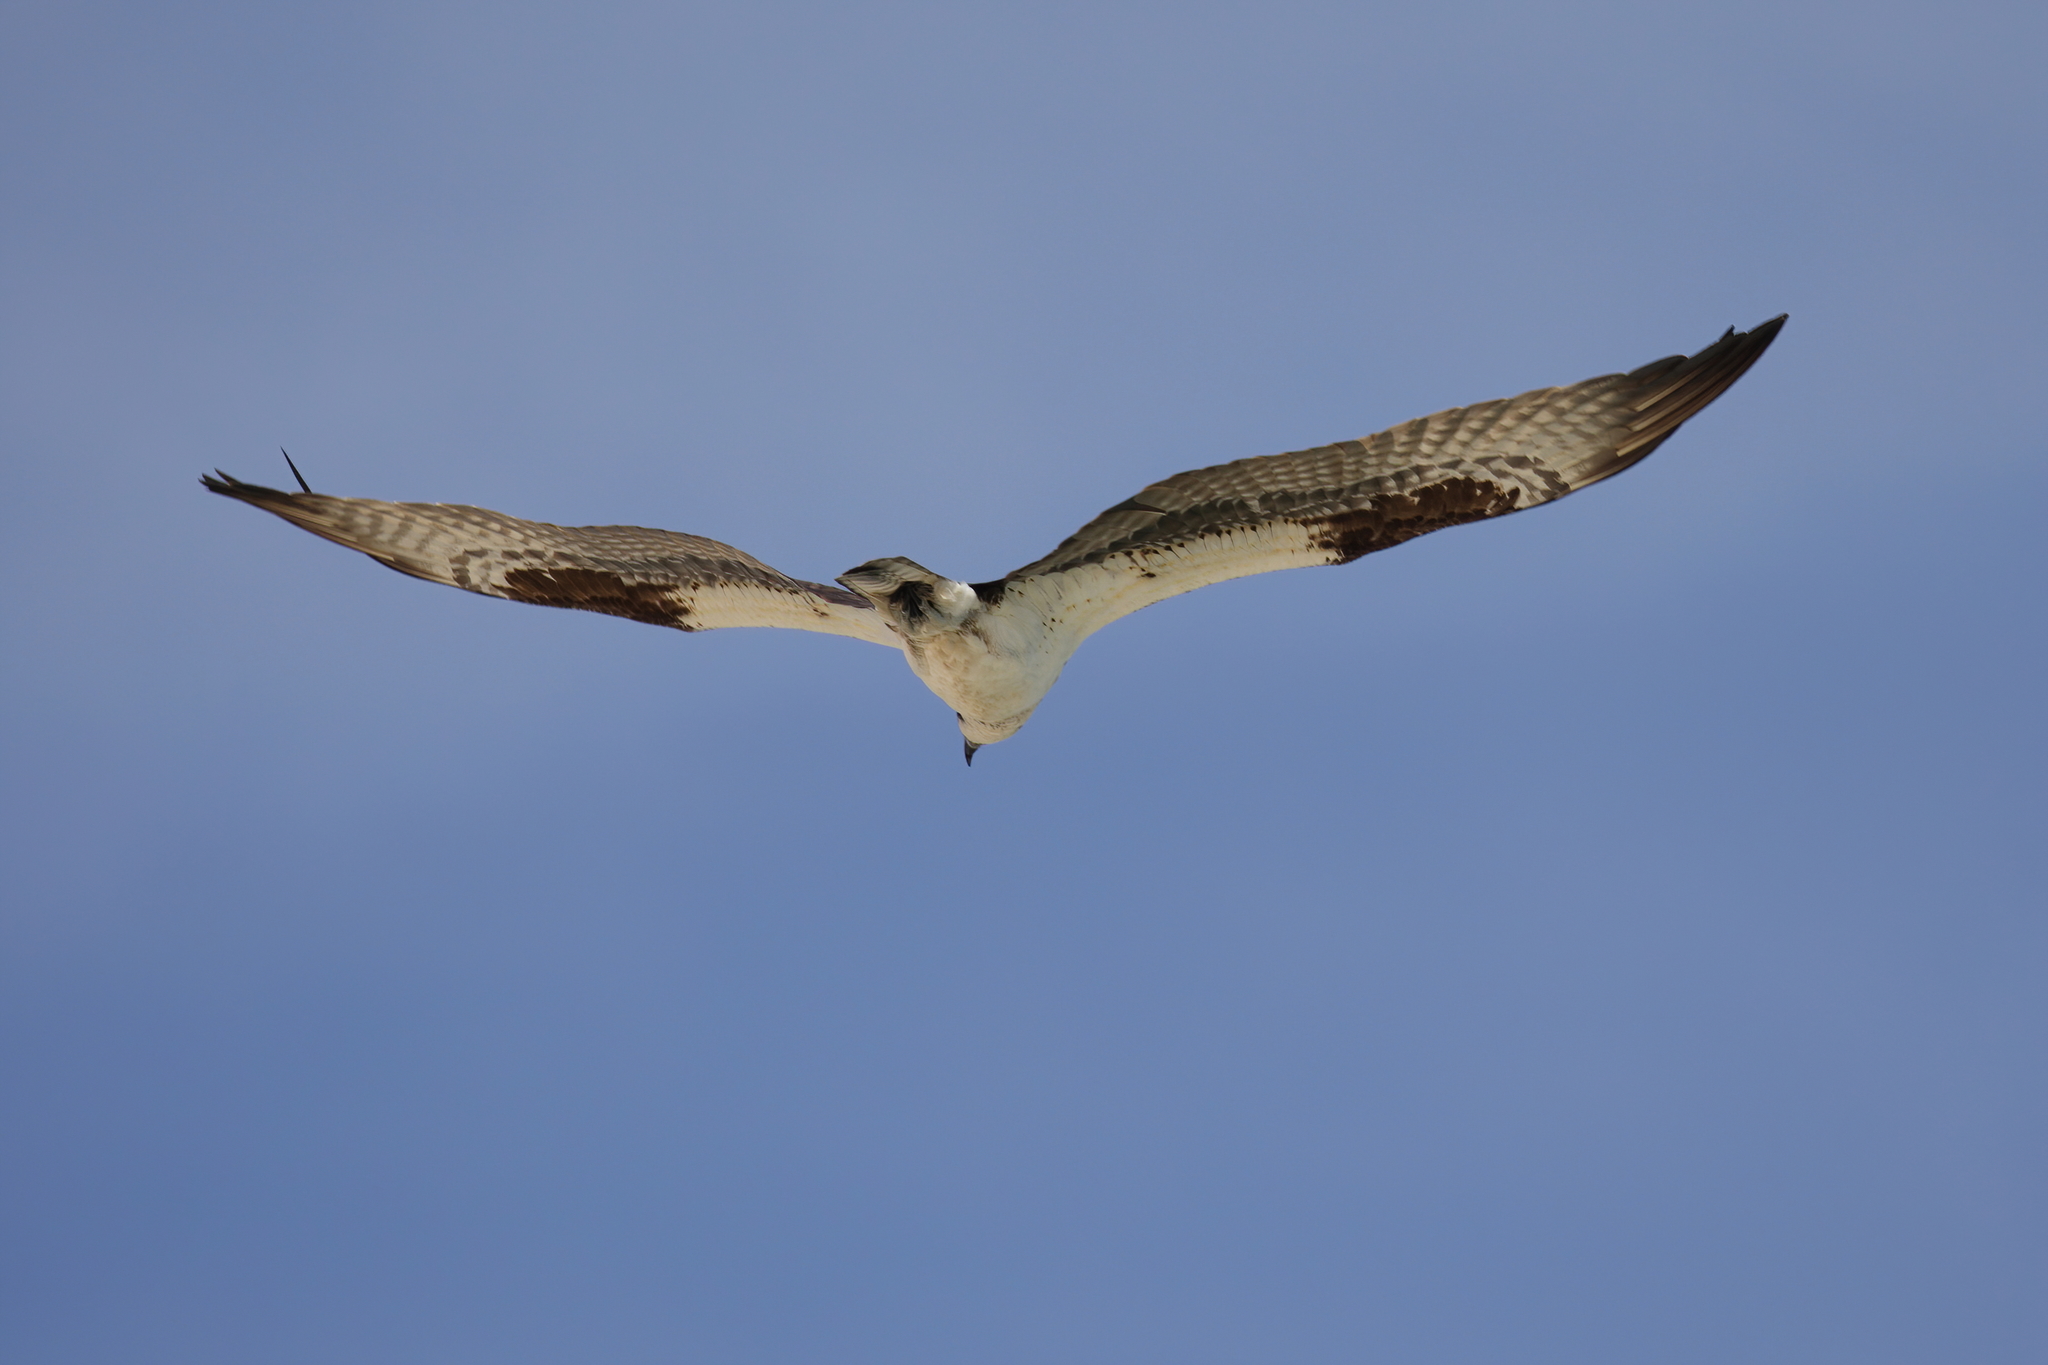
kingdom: Animalia
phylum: Chordata
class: Aves
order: Accipitriformes
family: Pandionidae
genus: Pandion
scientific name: Pandion haliaetus
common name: Osprey
